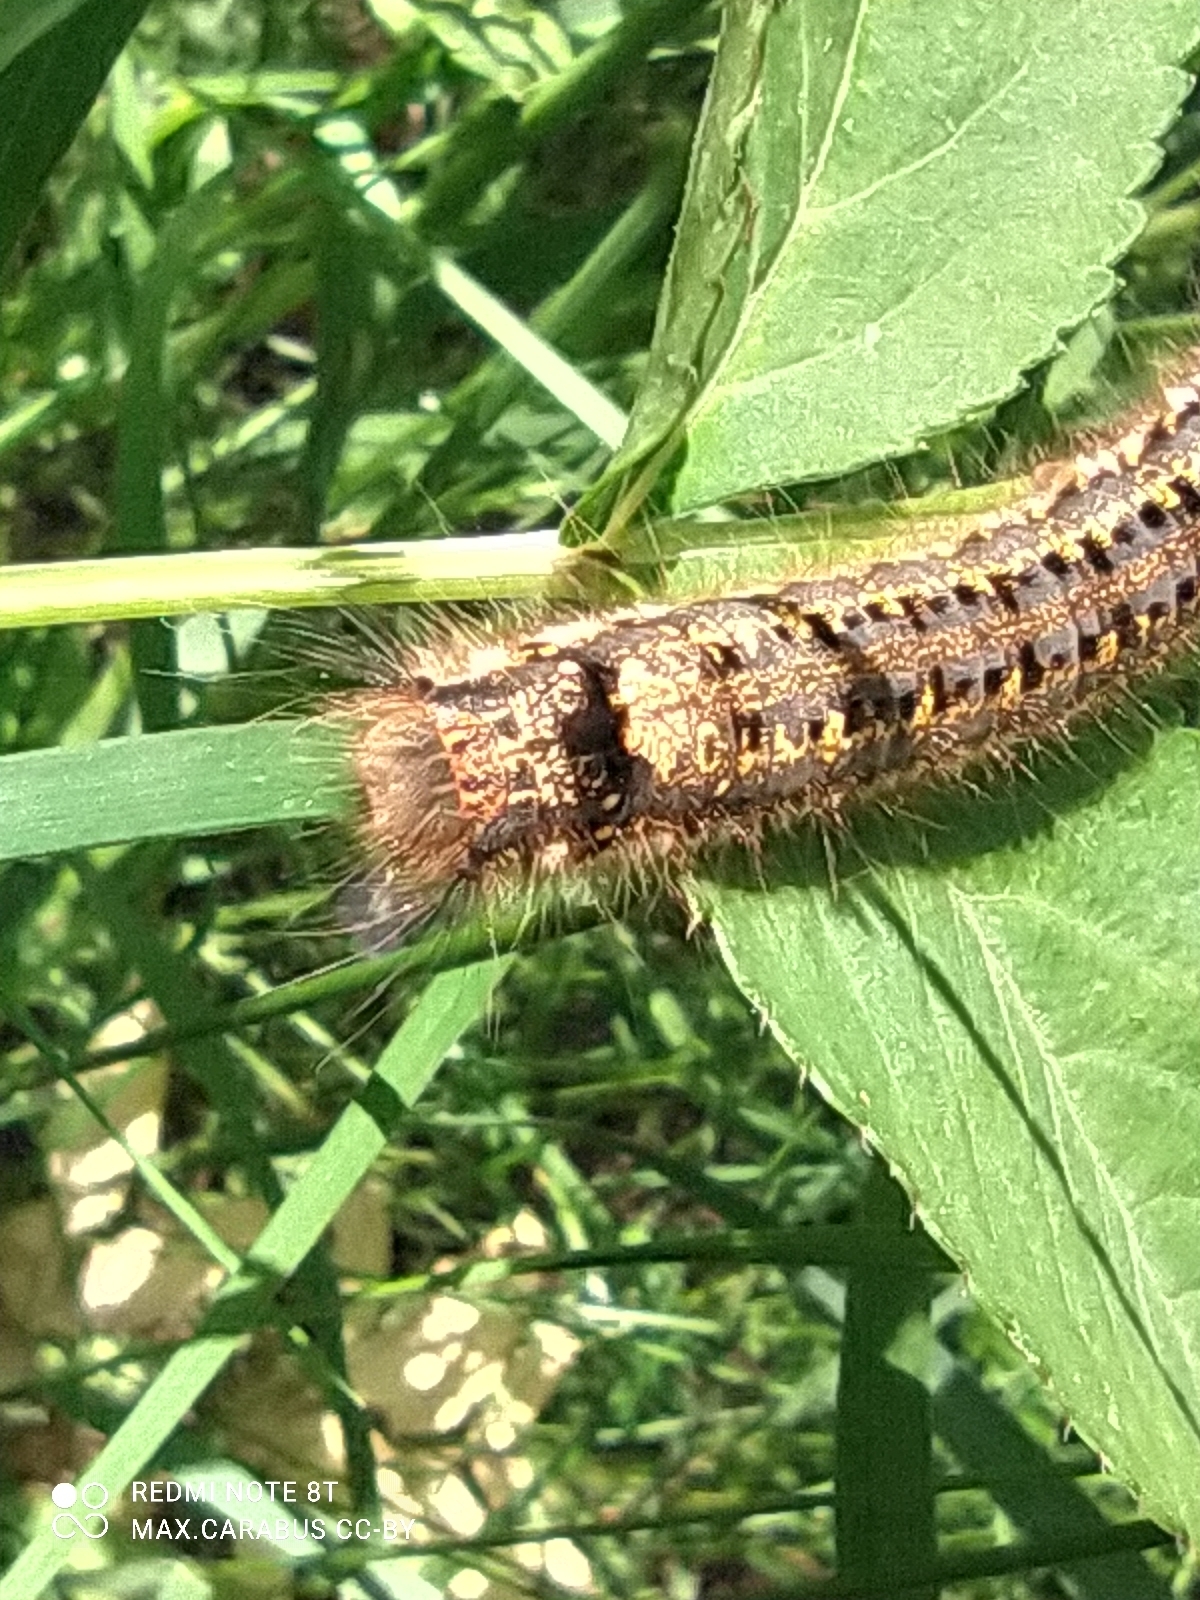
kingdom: Animalia
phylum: Arthropoda
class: Insecta
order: Lepidoptera
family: Lasiocampidae
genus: Euthrix
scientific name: Euthrix potatoria
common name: Drinker
